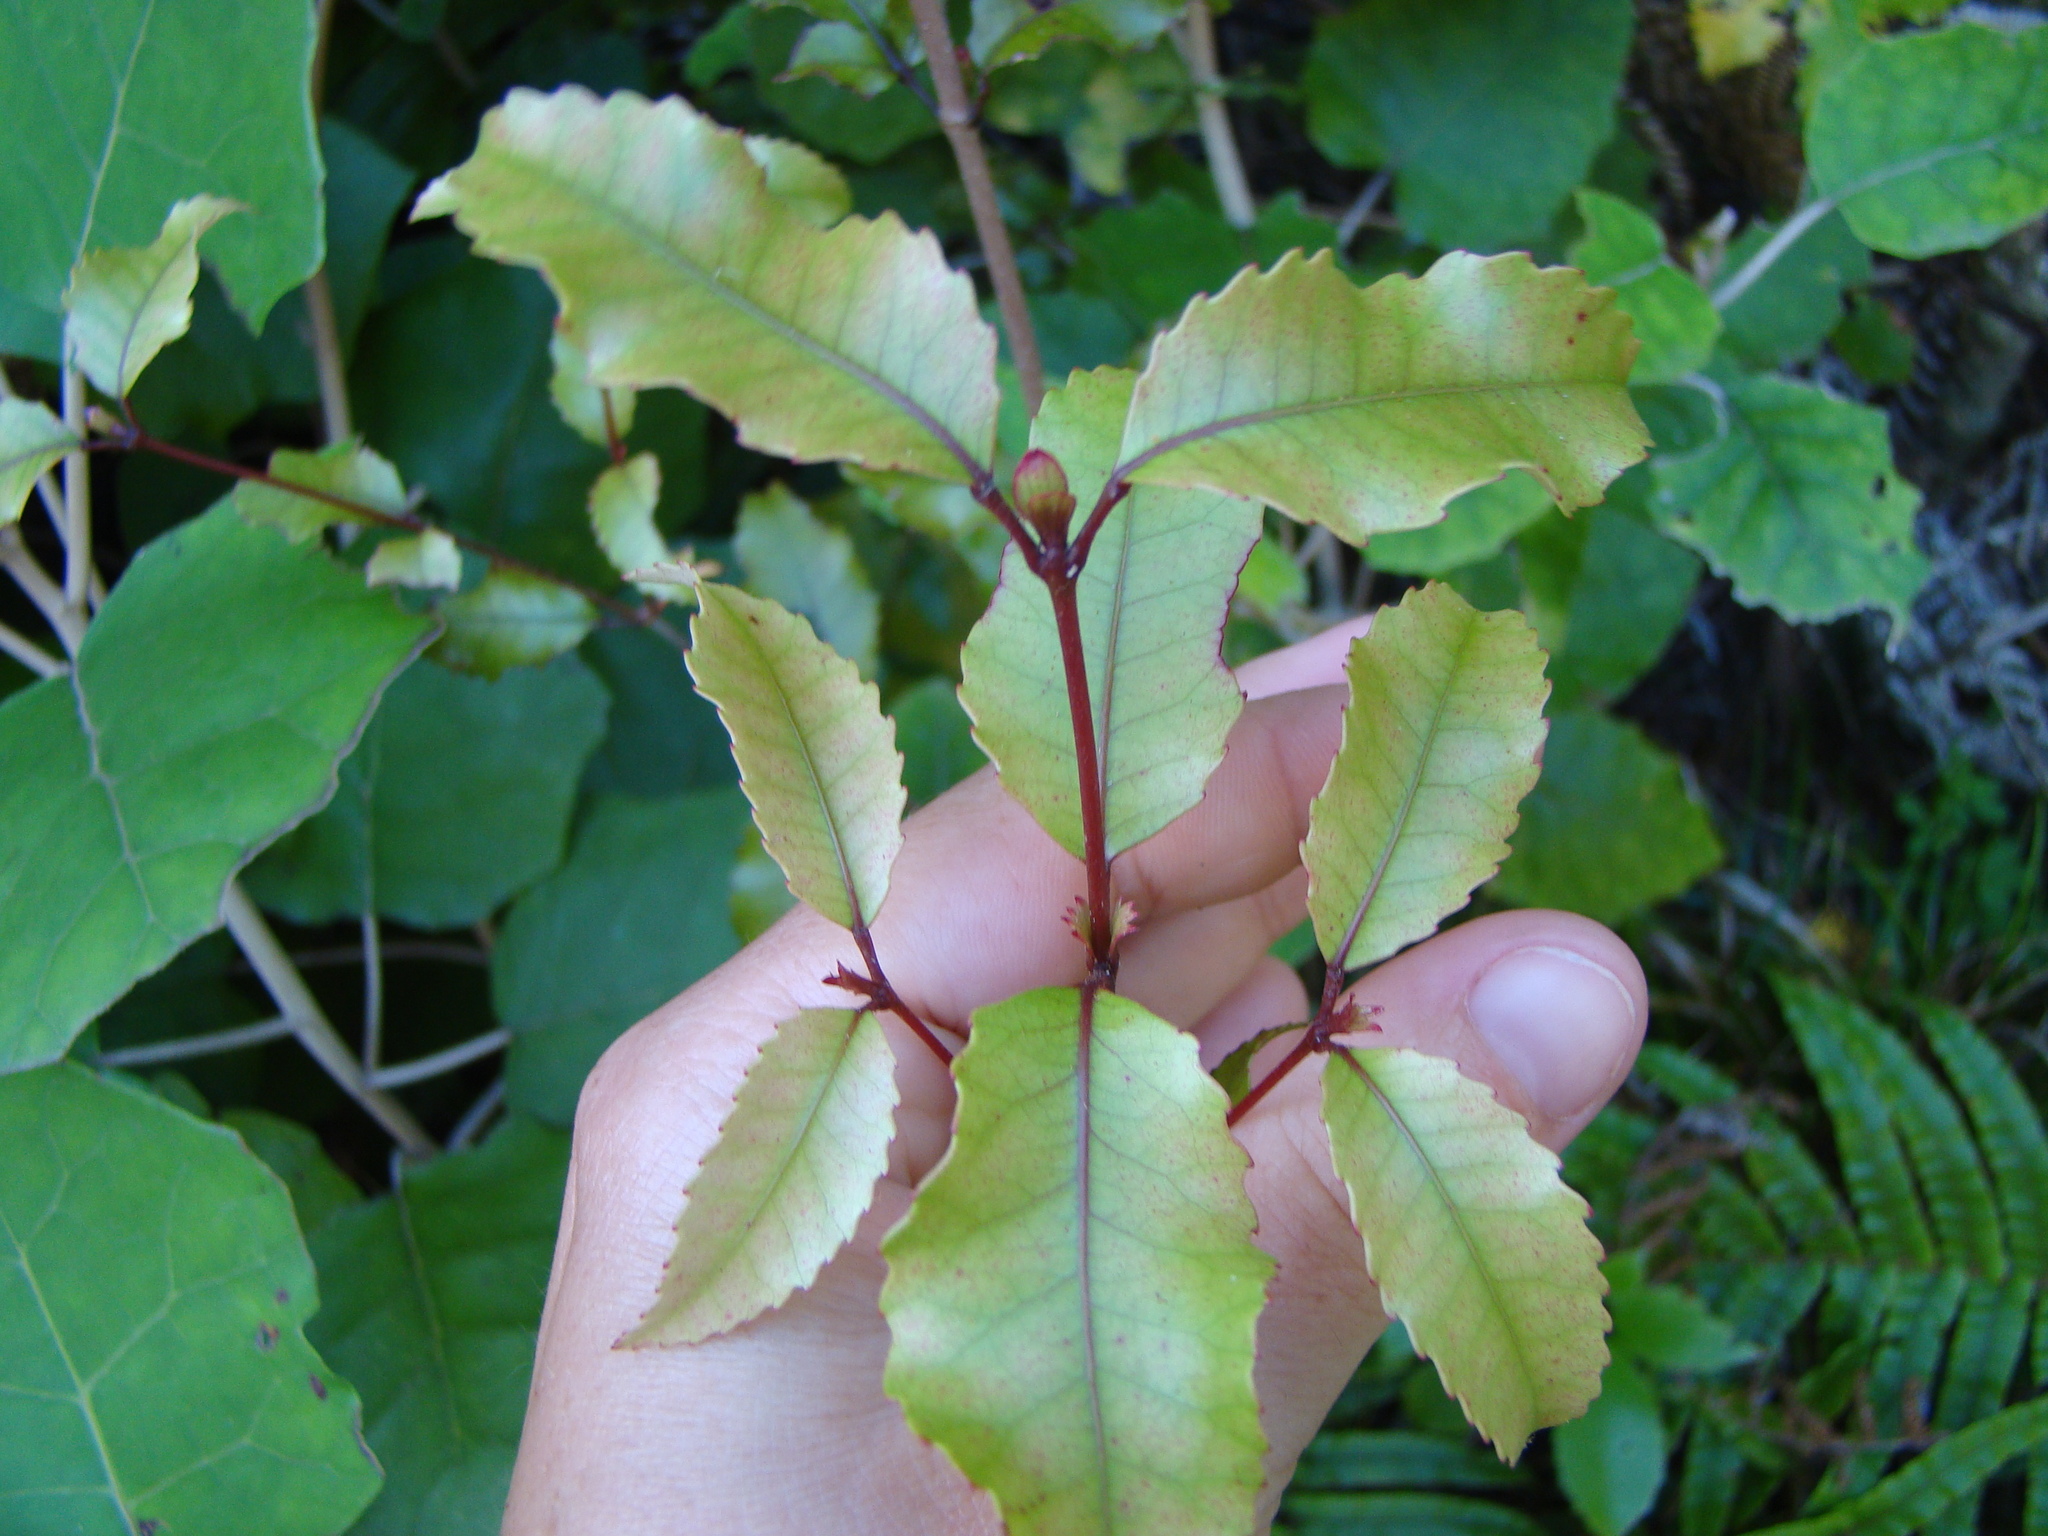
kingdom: Plantae
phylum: Tracheophyta
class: Magnoliopsida
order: Oxalidales
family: Cunoniaceae
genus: Pterophylla
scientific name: Pterophylla racemosa
